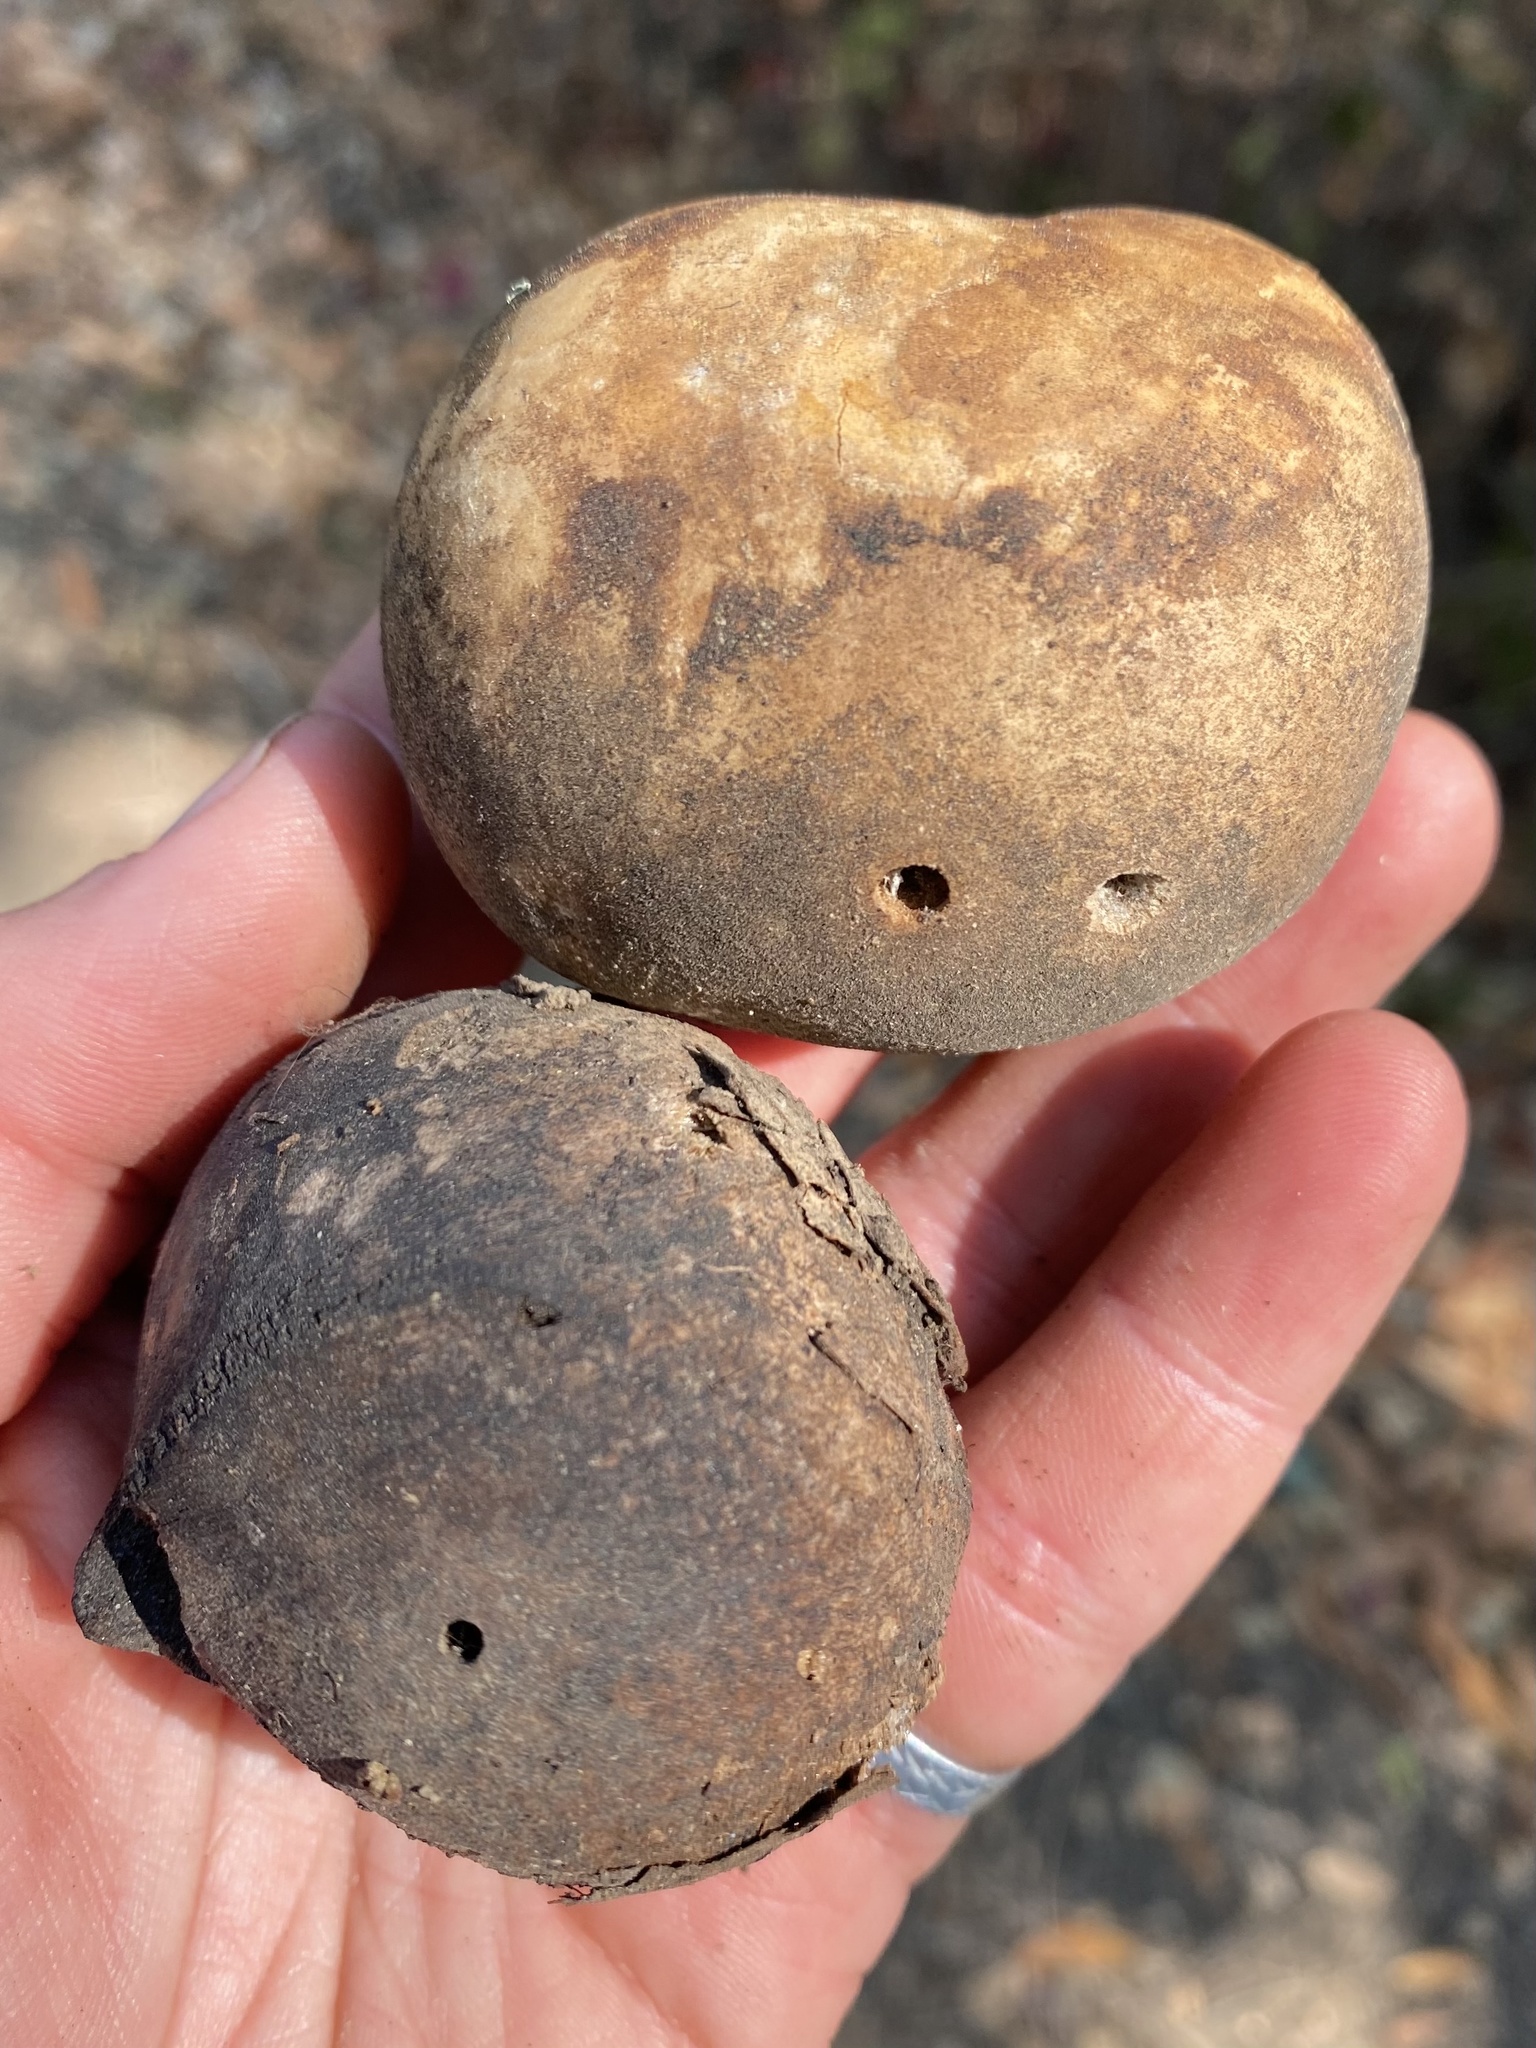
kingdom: Animalia
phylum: Arthropoda
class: Insecta
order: Hymenoptera
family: Cynipidae
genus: Andricus
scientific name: Andricus quercuscalifornicus
